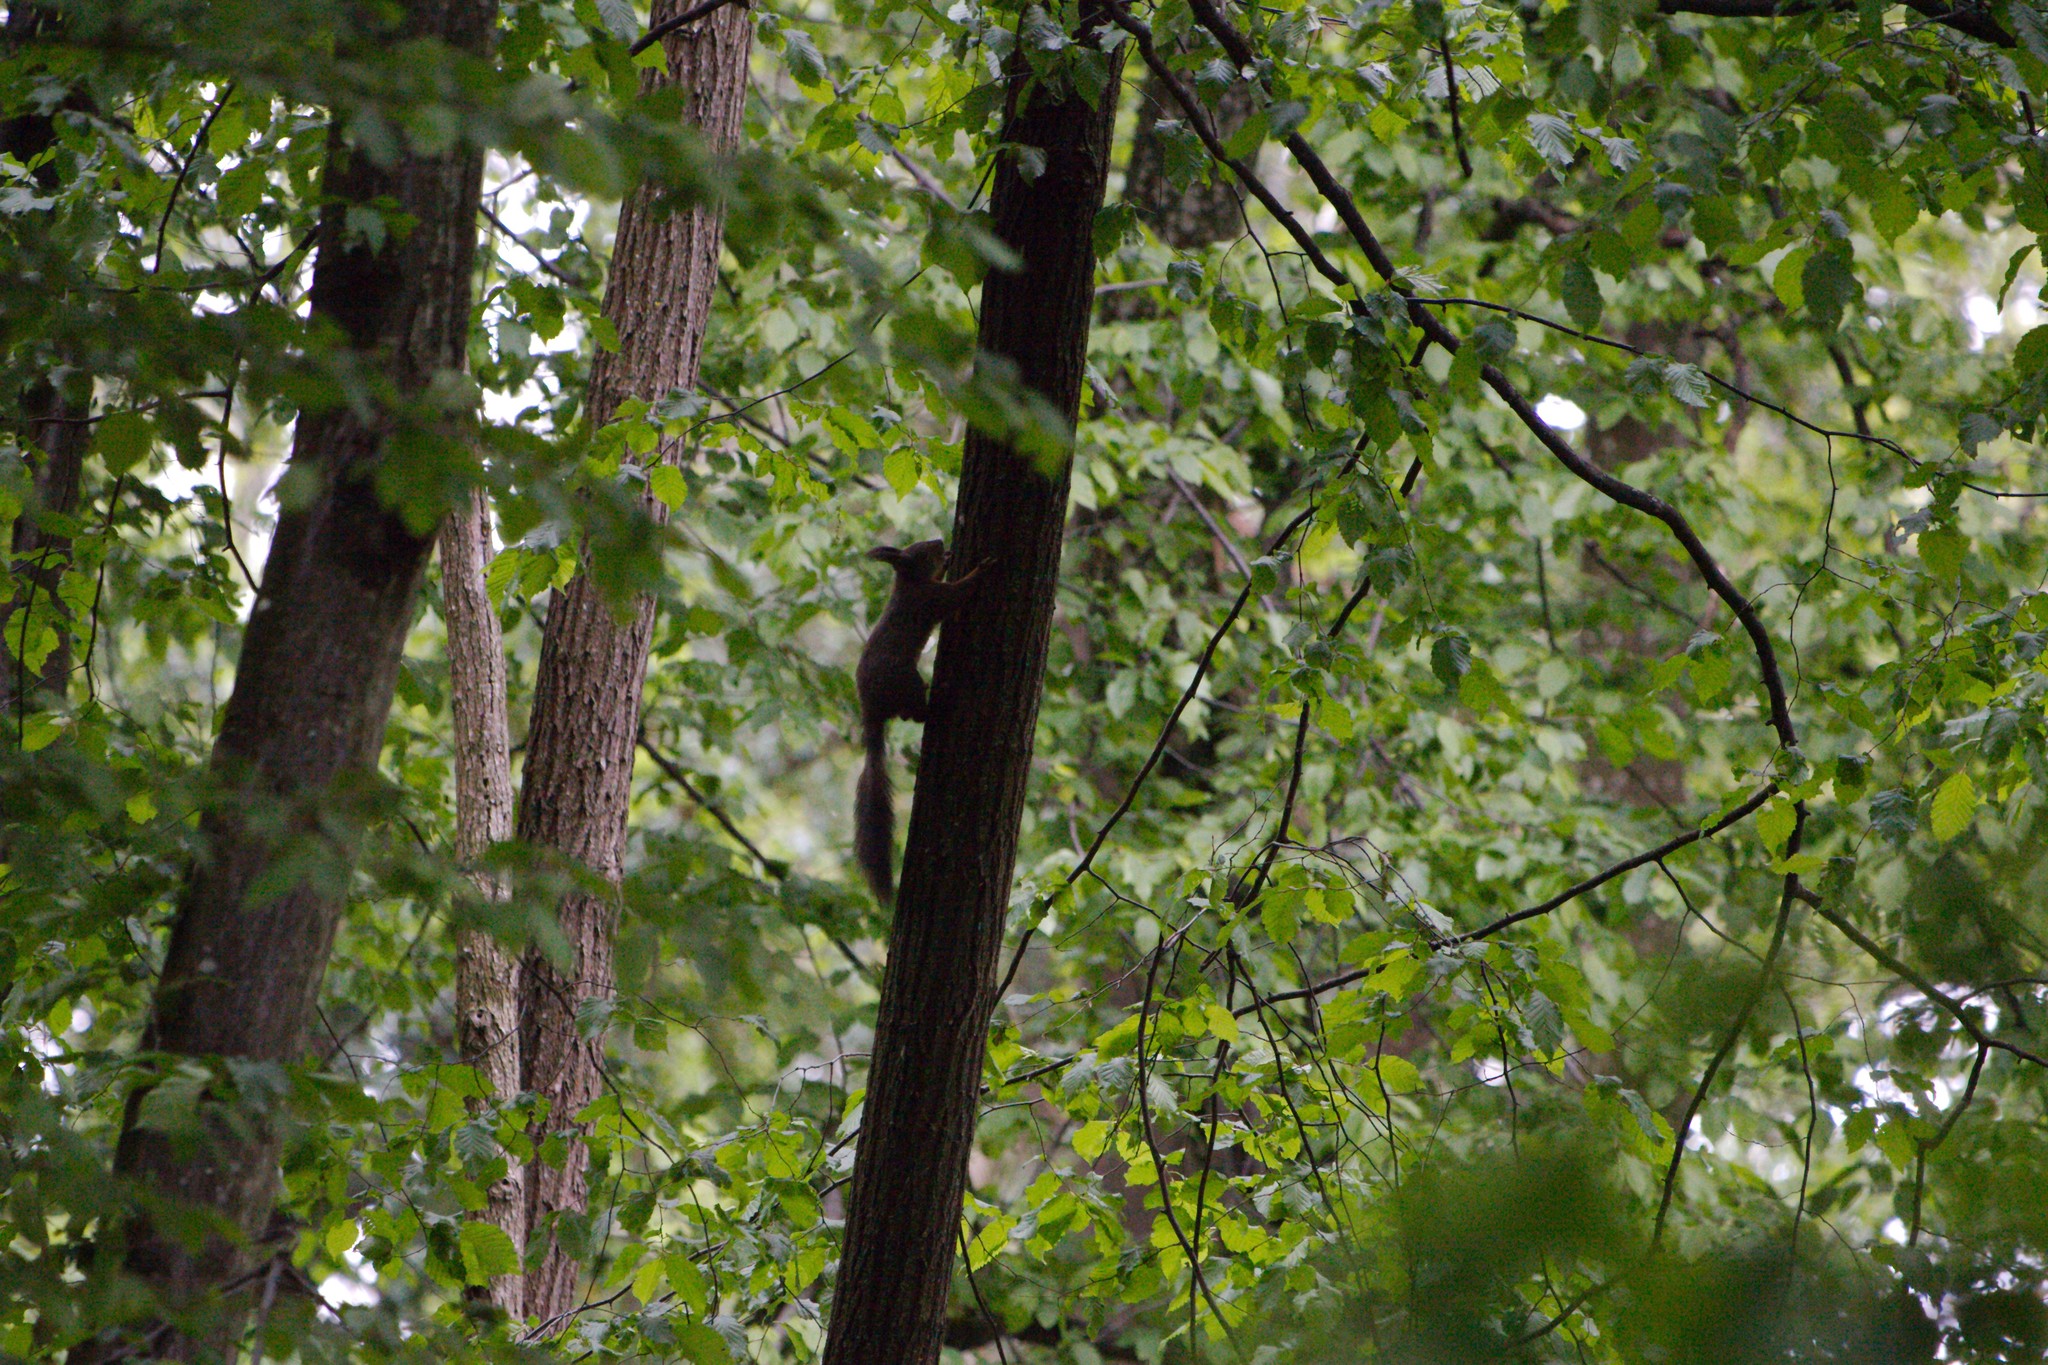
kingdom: Animalia
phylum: Chordata
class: Mammalia
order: Rodentia
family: Sciuridae
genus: Sciurus
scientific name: Sciurus vulgaris
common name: Eurasian red squirrel
